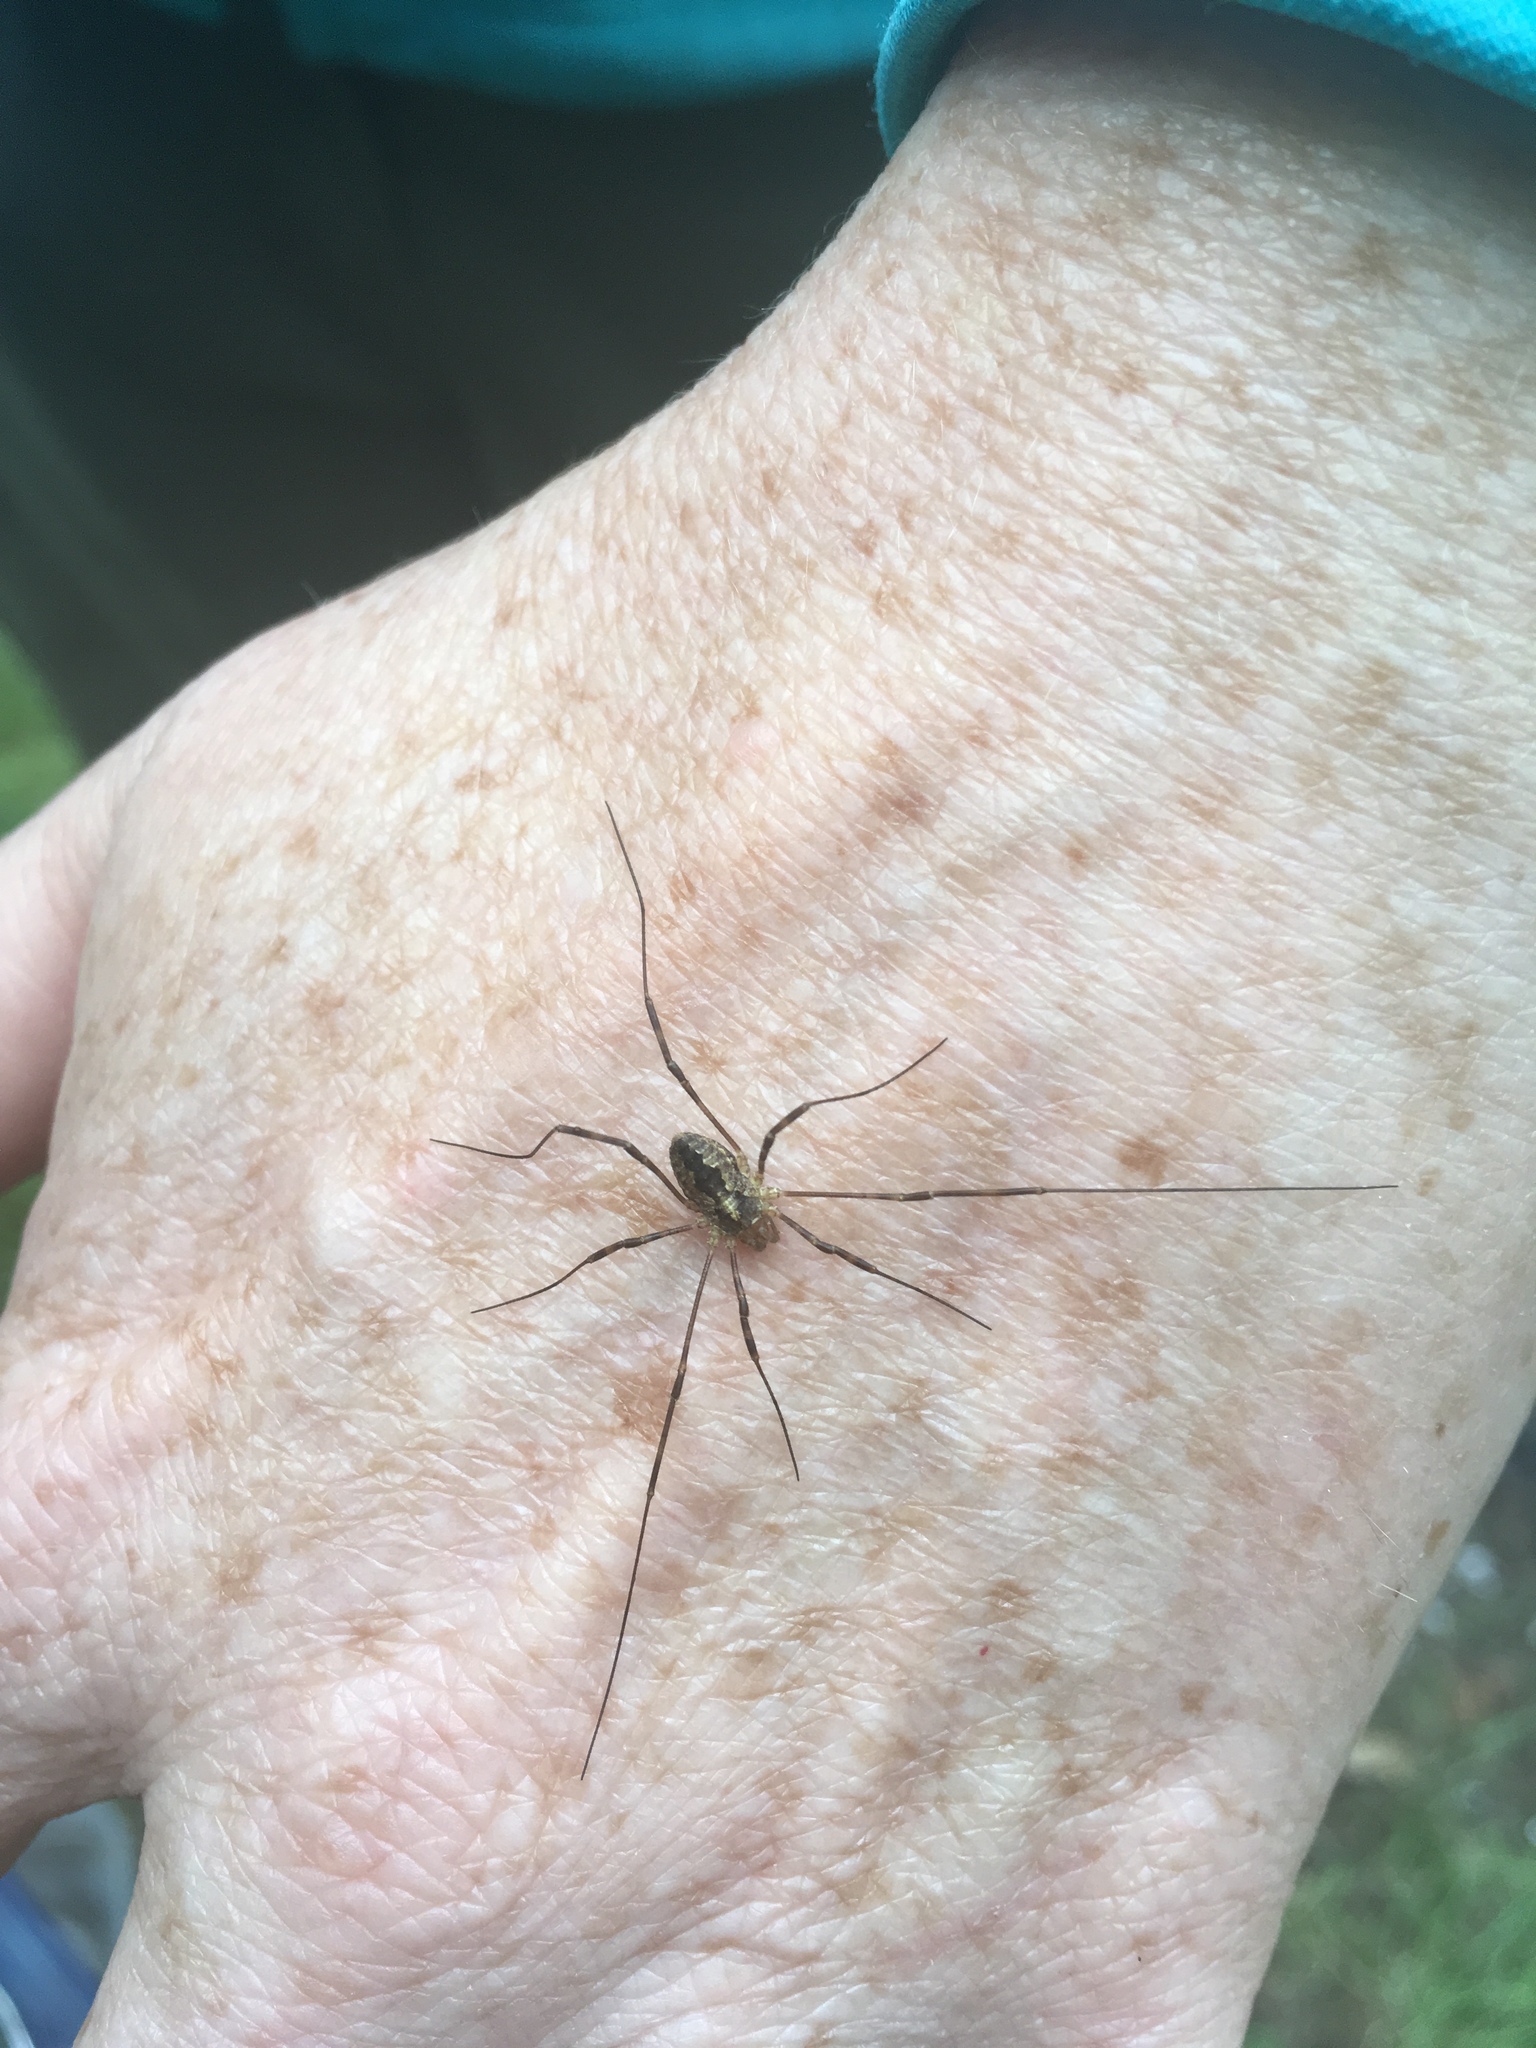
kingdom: Animalia
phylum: Arthropoda
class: Arachnida
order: Opiliones
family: Phalangiidae
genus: Odiellus
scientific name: Odiellus pictus
